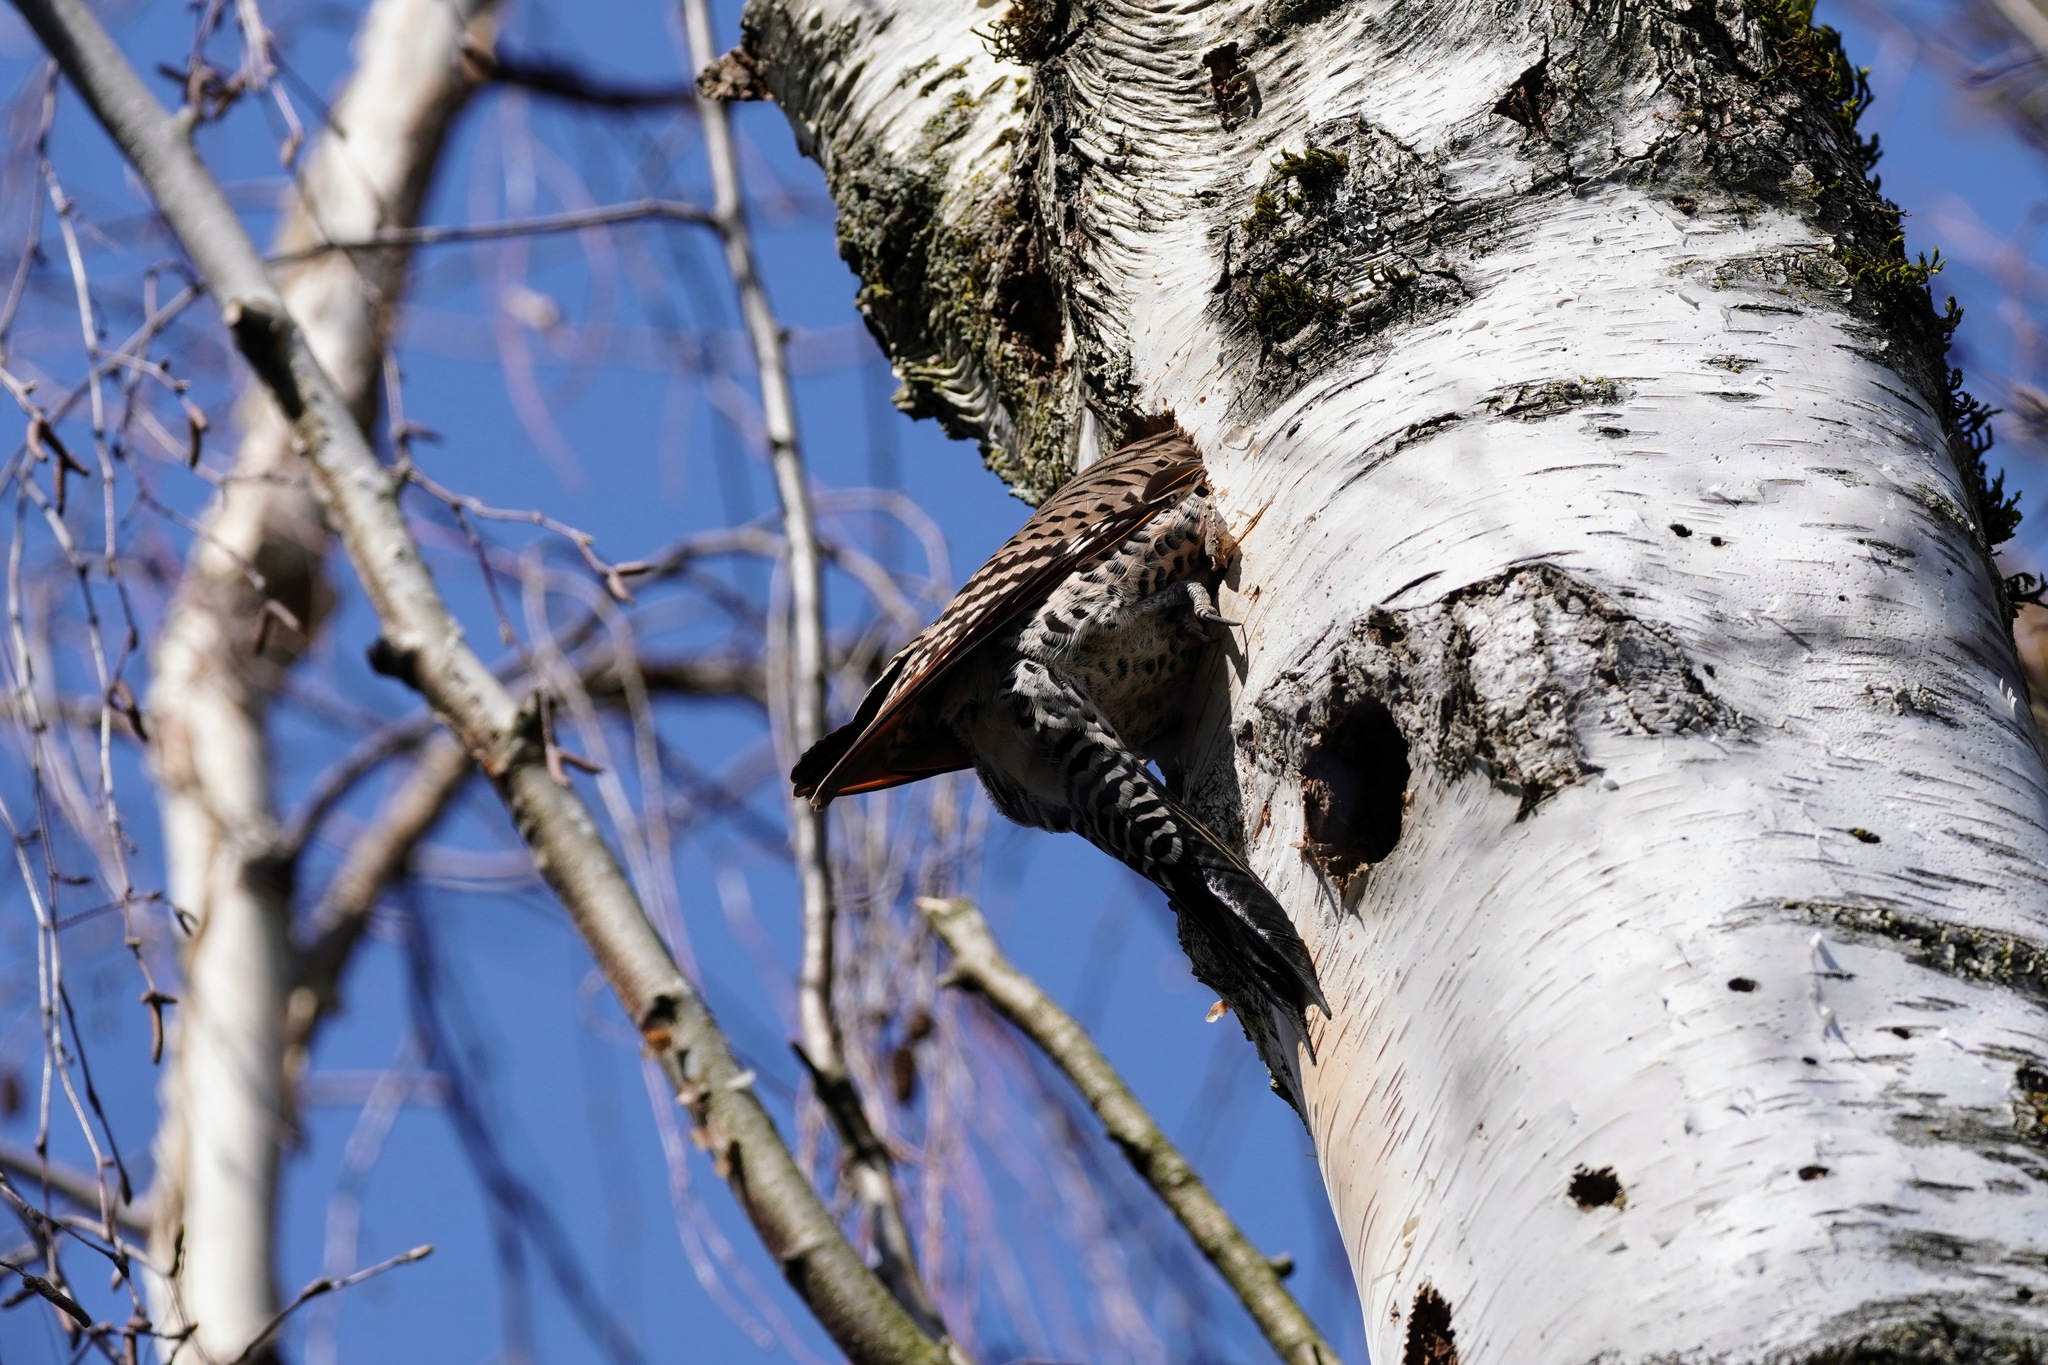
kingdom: Animalia
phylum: Chordata
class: Aves
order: Piciformes
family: Picidae
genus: Colaptes
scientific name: Colaptes auratus
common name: Northern flicker
